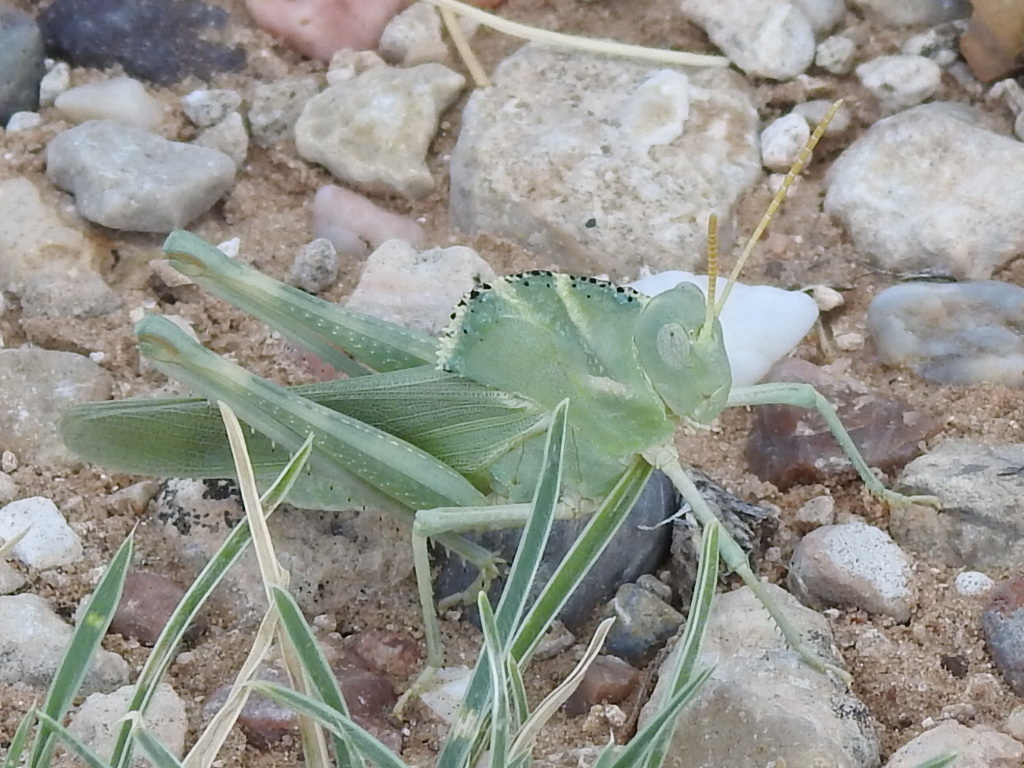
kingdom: Animalia
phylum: Arthropoda
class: Insecta
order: Orthoptera
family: Acrididae
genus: Tropidolophus
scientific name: Tropidolophus formosus
